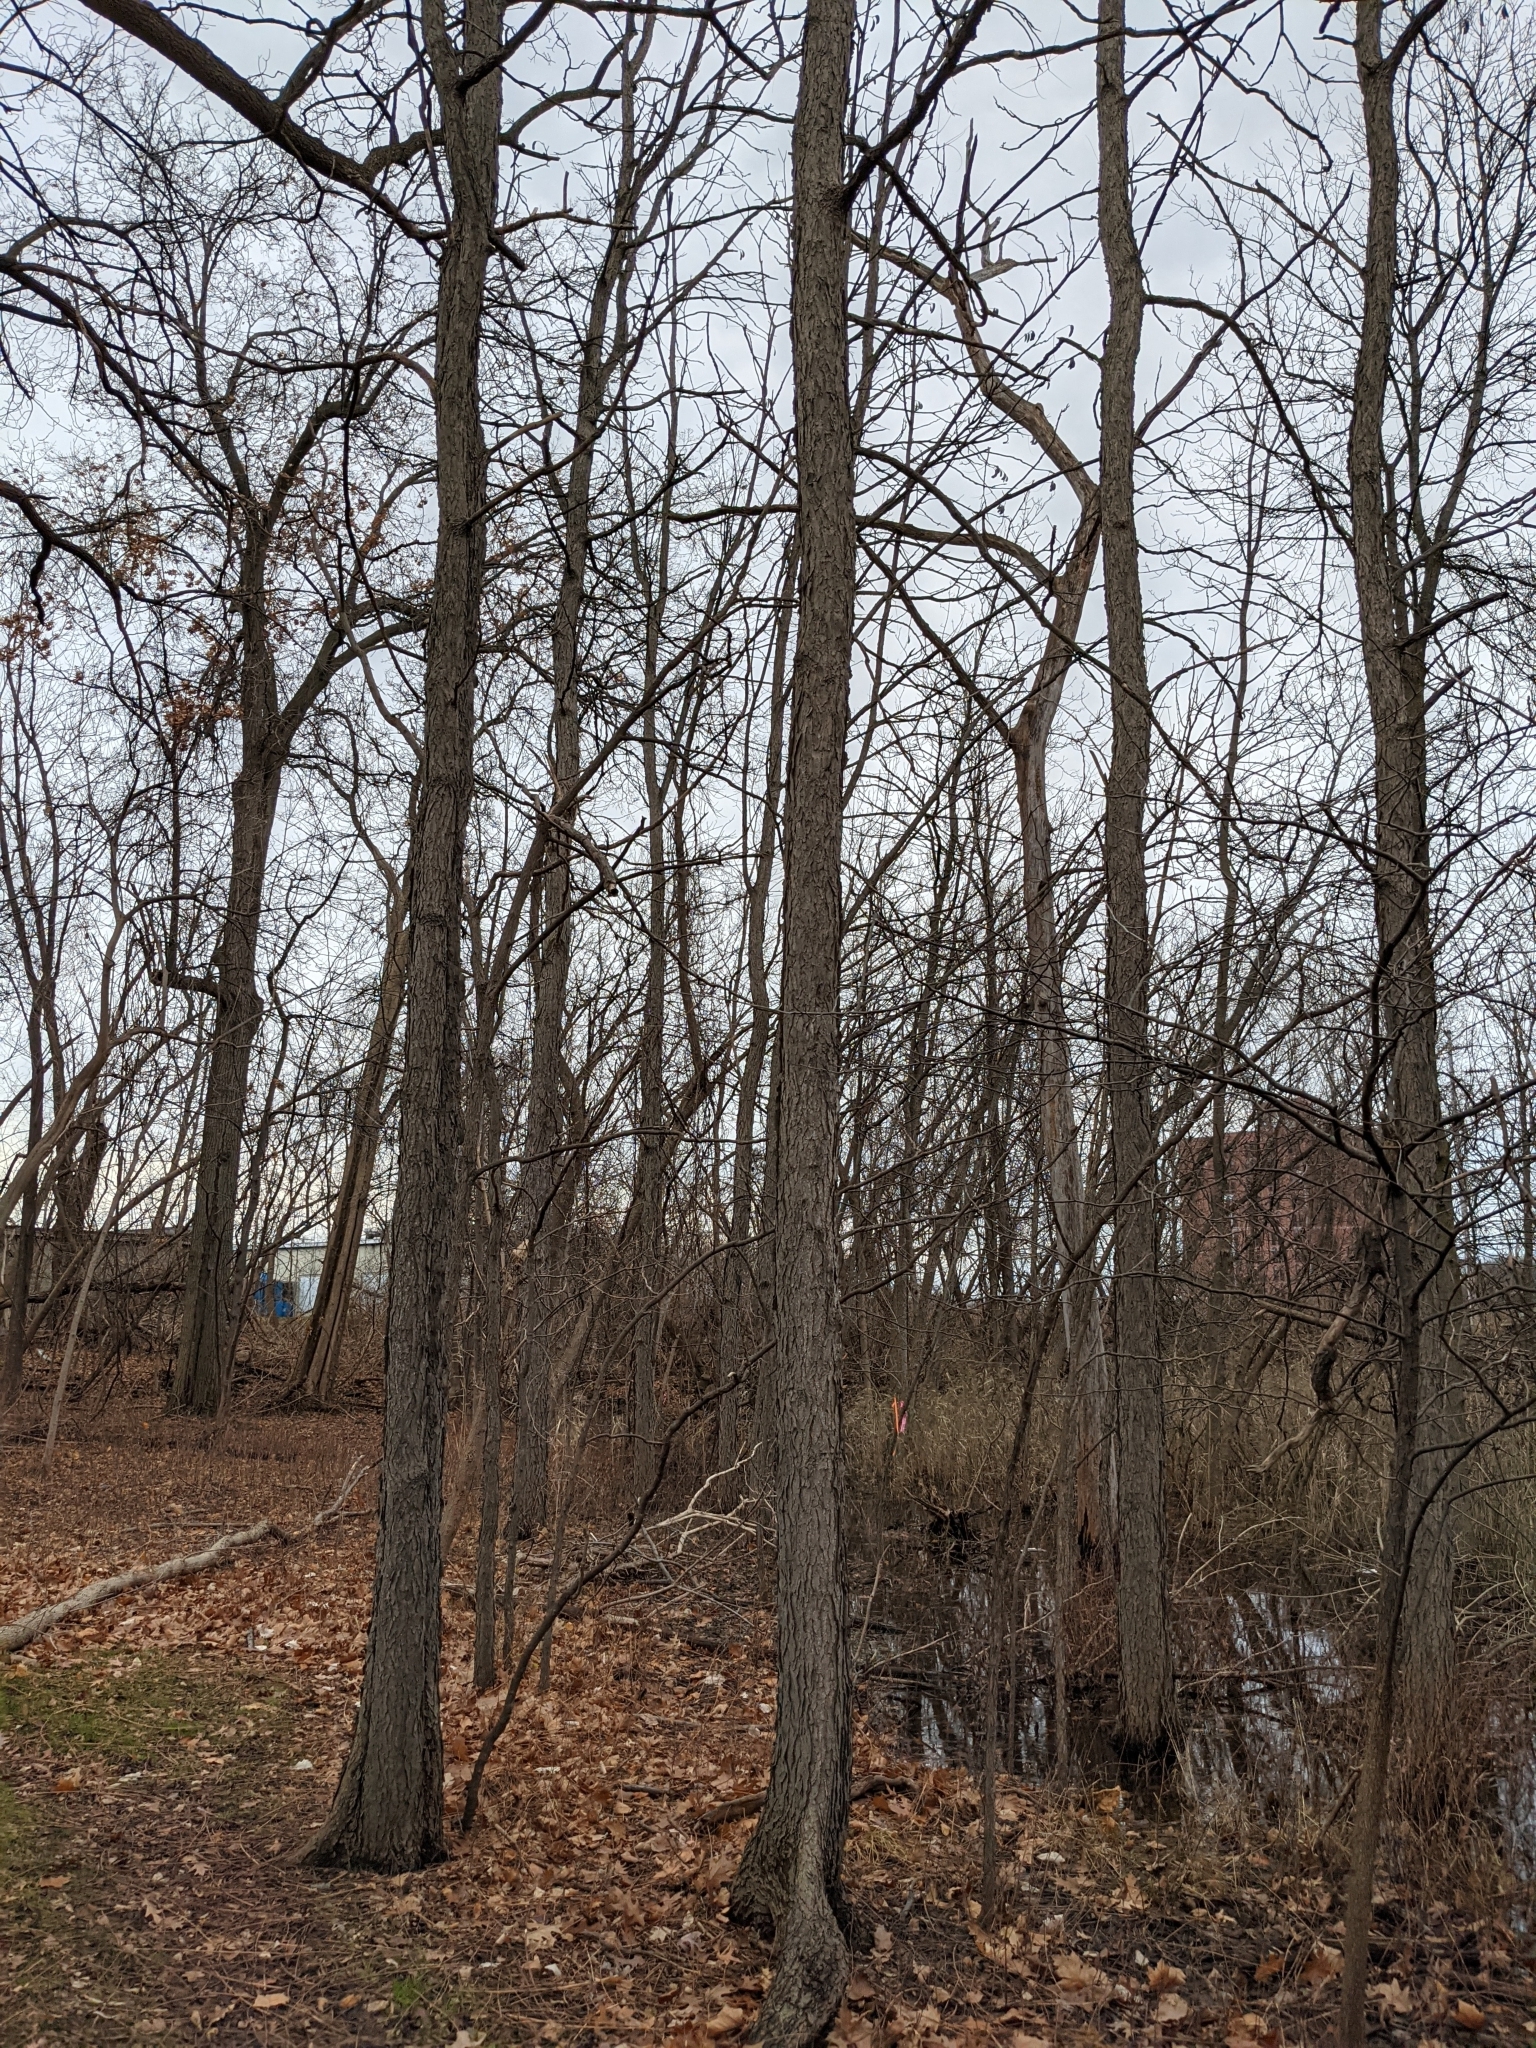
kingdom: Plantae
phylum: Tracheophyta
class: Magnoliopsida
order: Fabales
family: Fabaceae
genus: Gymnocladus
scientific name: Gymnocladus dioicus
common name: Kentucky coffee-tree
